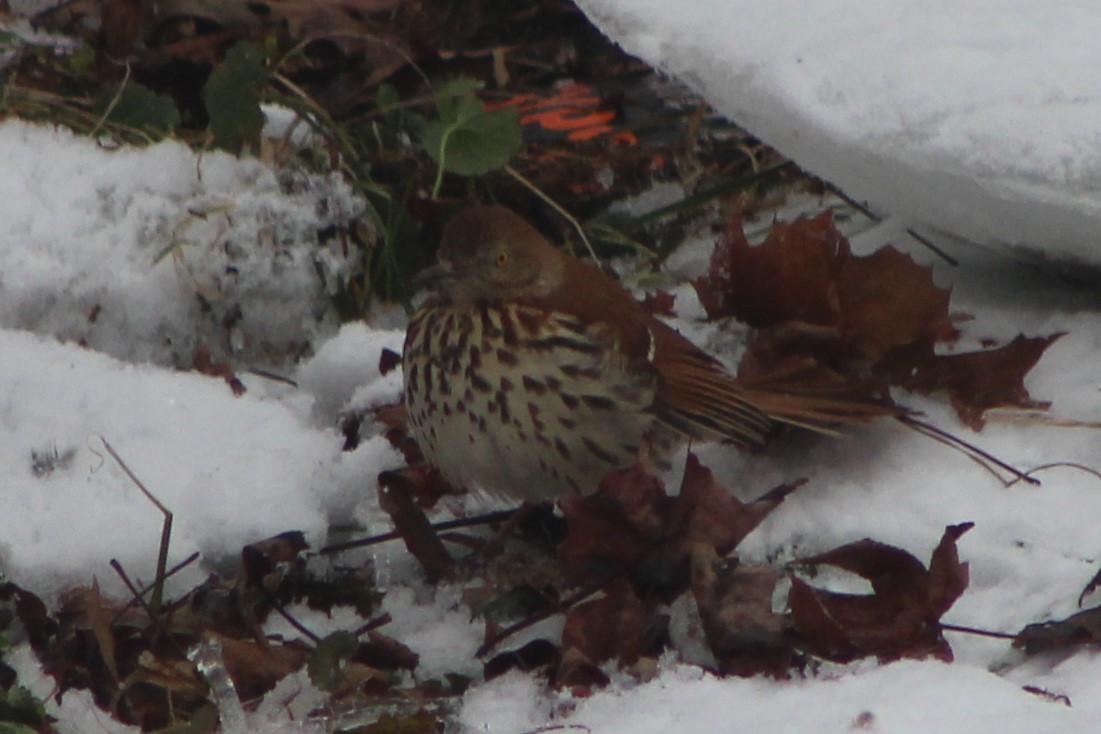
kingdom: Animalia
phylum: Chordata
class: Aves
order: Passeriformes
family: Mimidae
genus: Toxostoma
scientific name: Toxostoma rufum
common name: Brown thrasher
